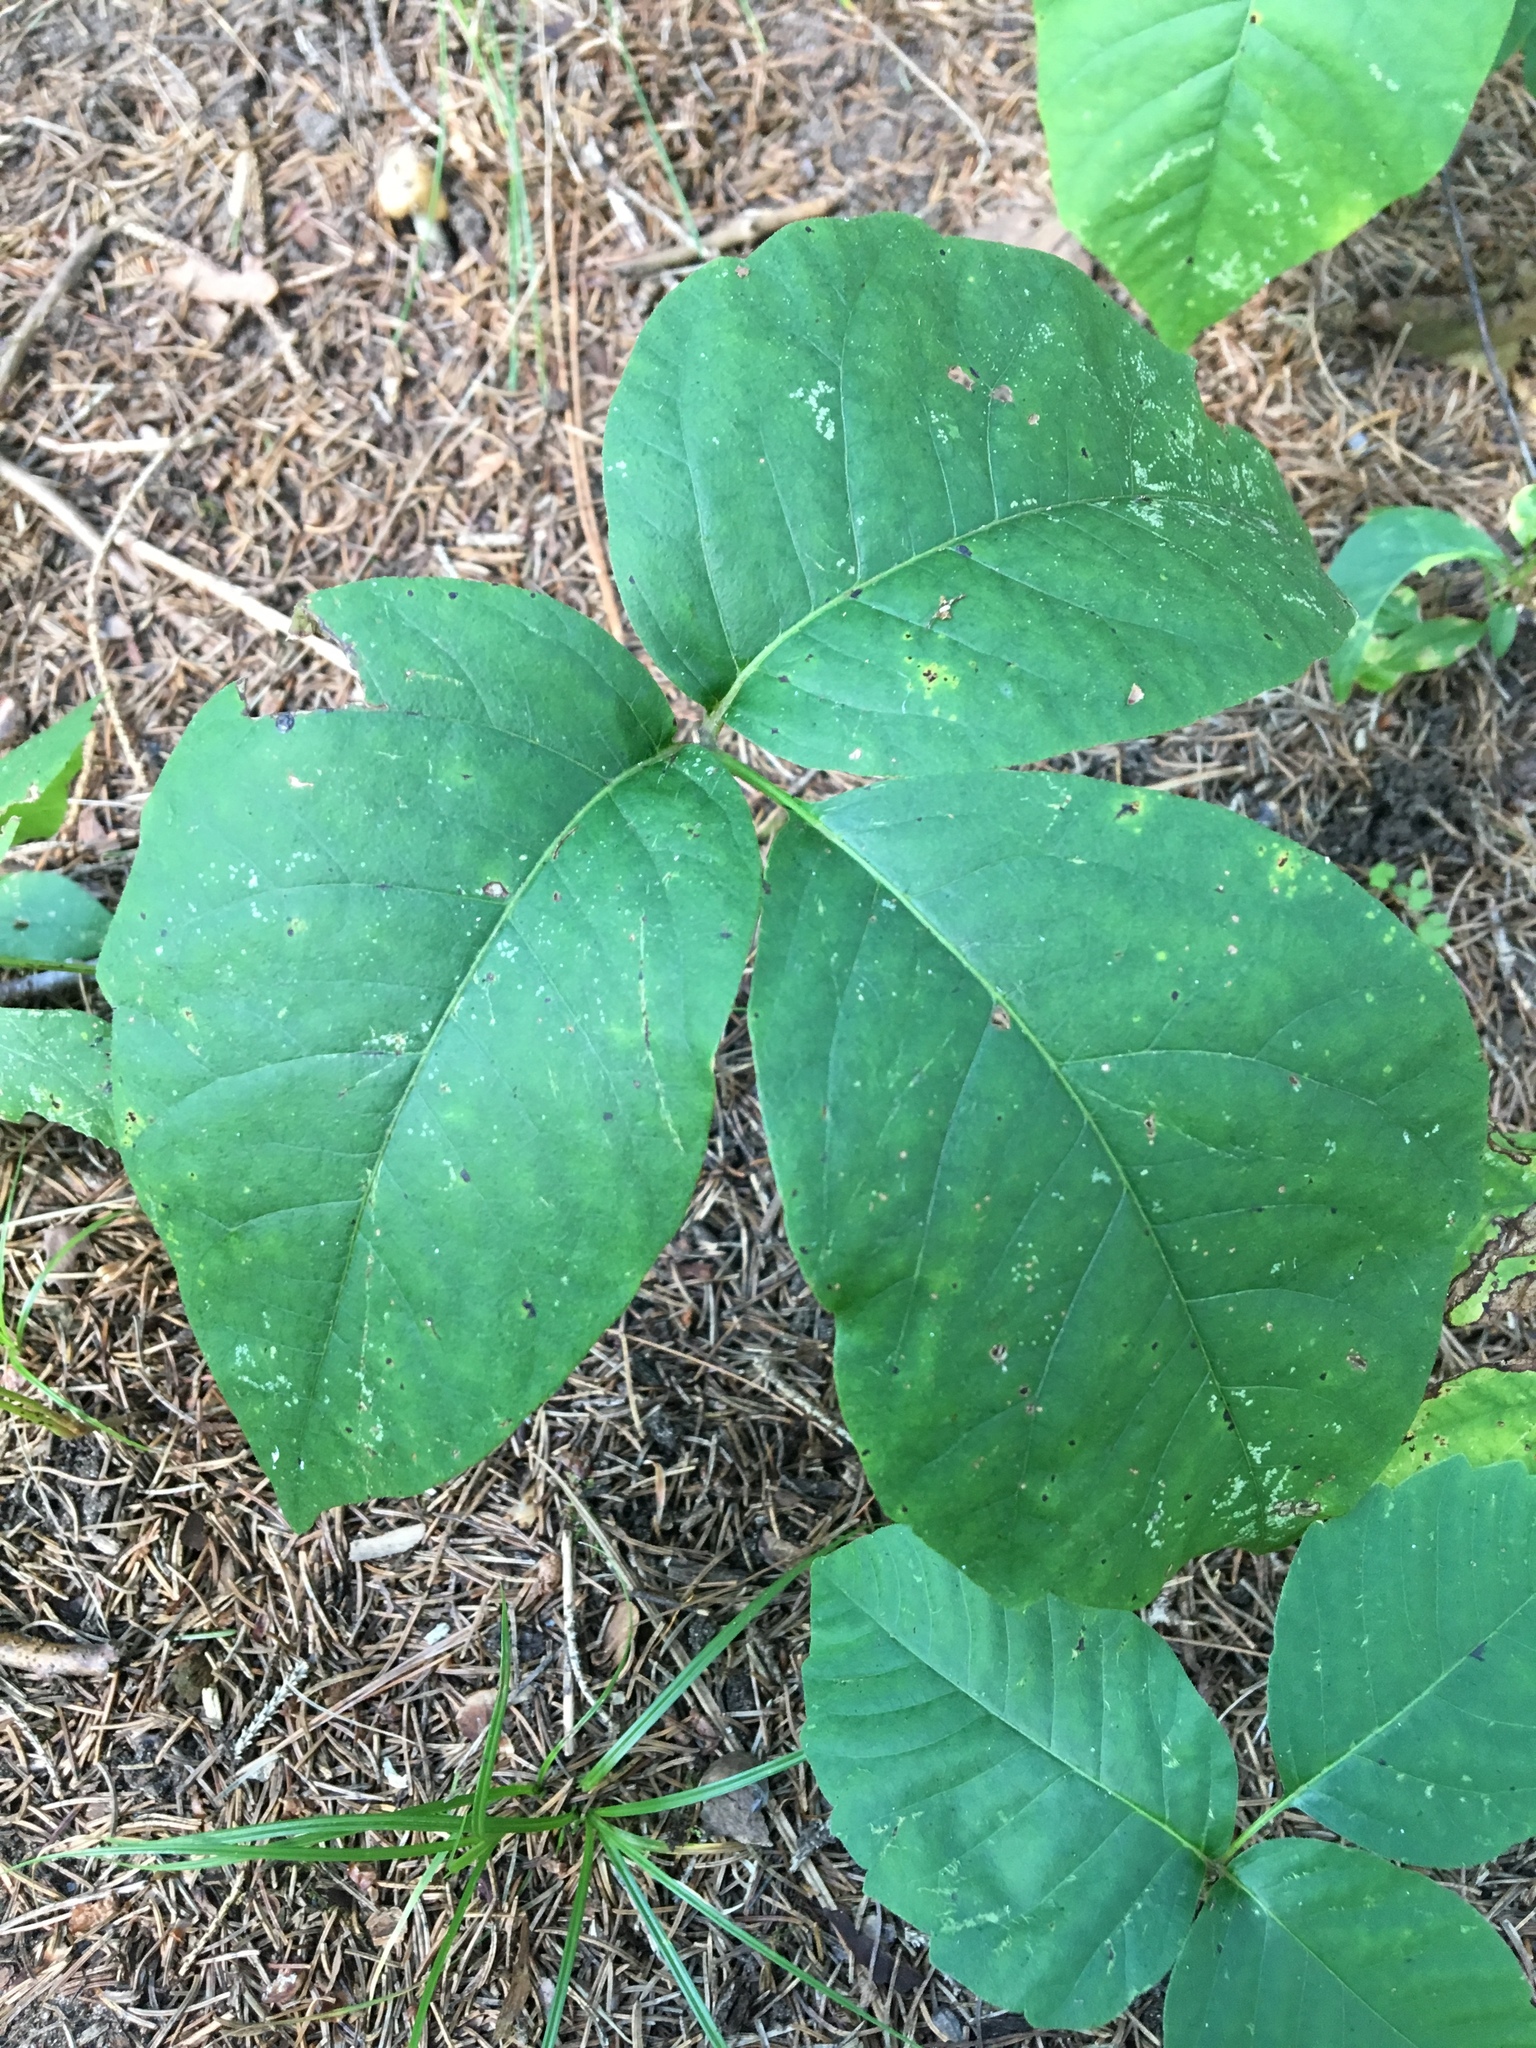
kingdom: Plantae
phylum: Tracheophyta
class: Magnoliopsida
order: Sapindales
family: Anacardiaceae
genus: Toxicodendron
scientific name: Toxicodendron radicans
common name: Poison ivy
